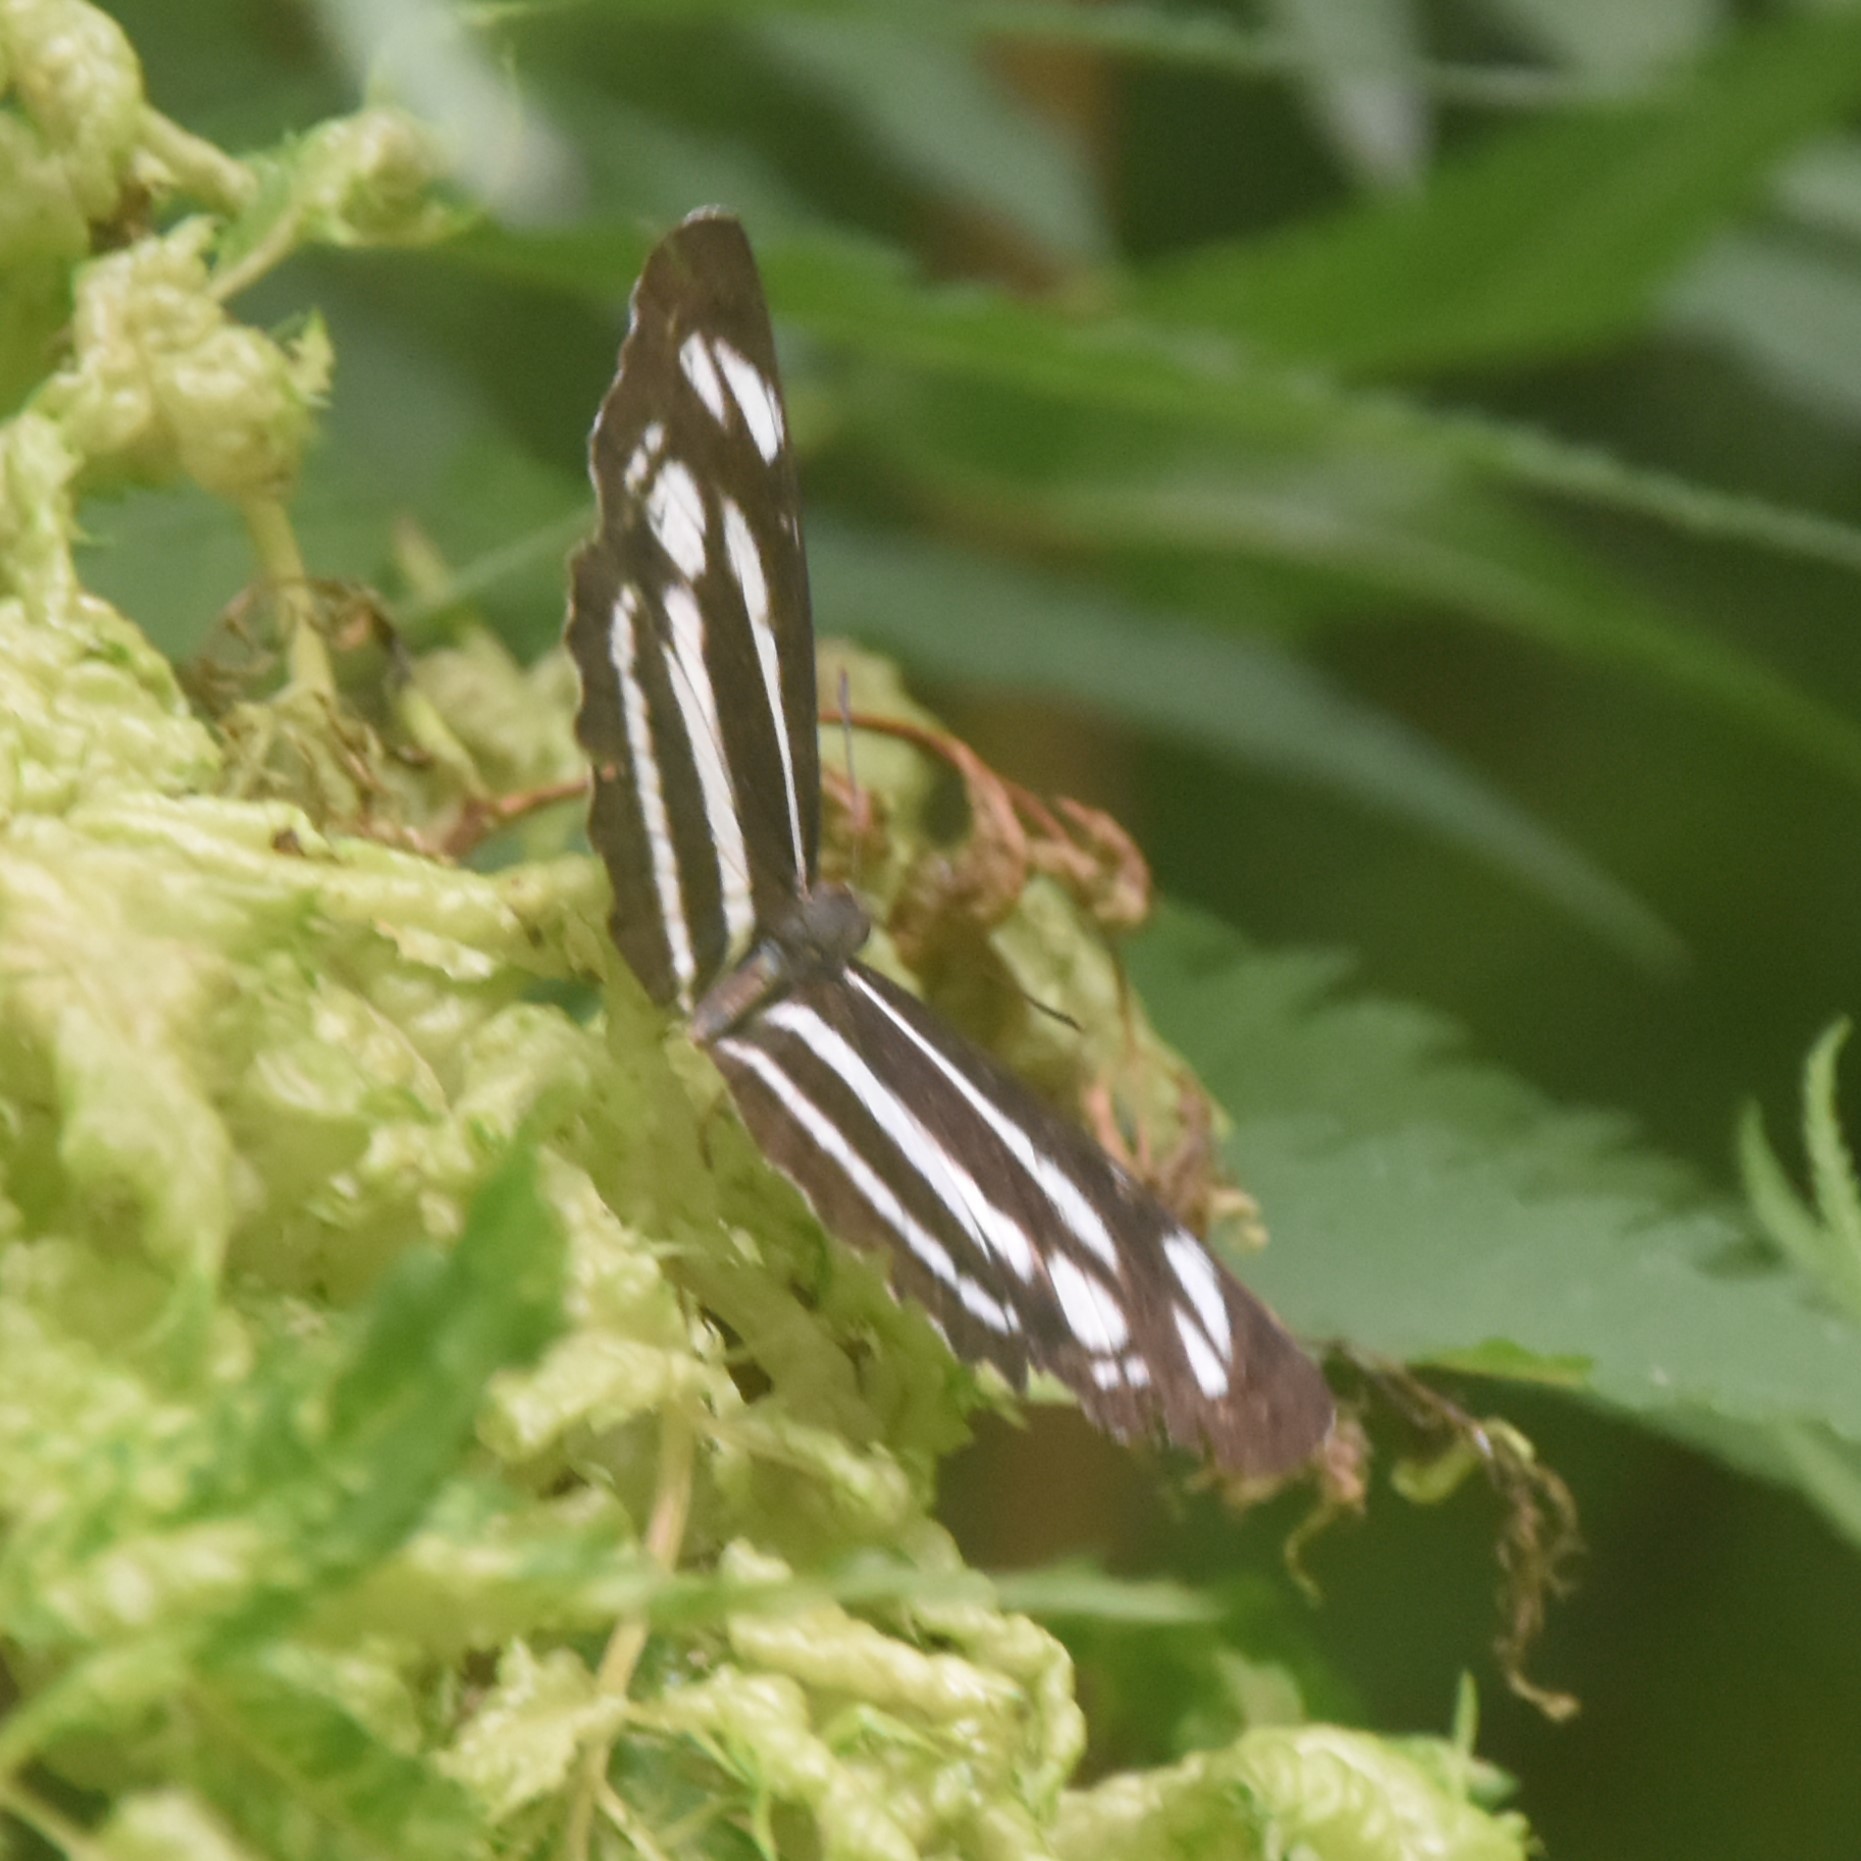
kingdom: Animalia
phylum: Arthropoda
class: Insecta
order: Lepidoptera
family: Nymphalidae
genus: Neptis
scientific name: Neptis narayana
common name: Broadstick sailer
